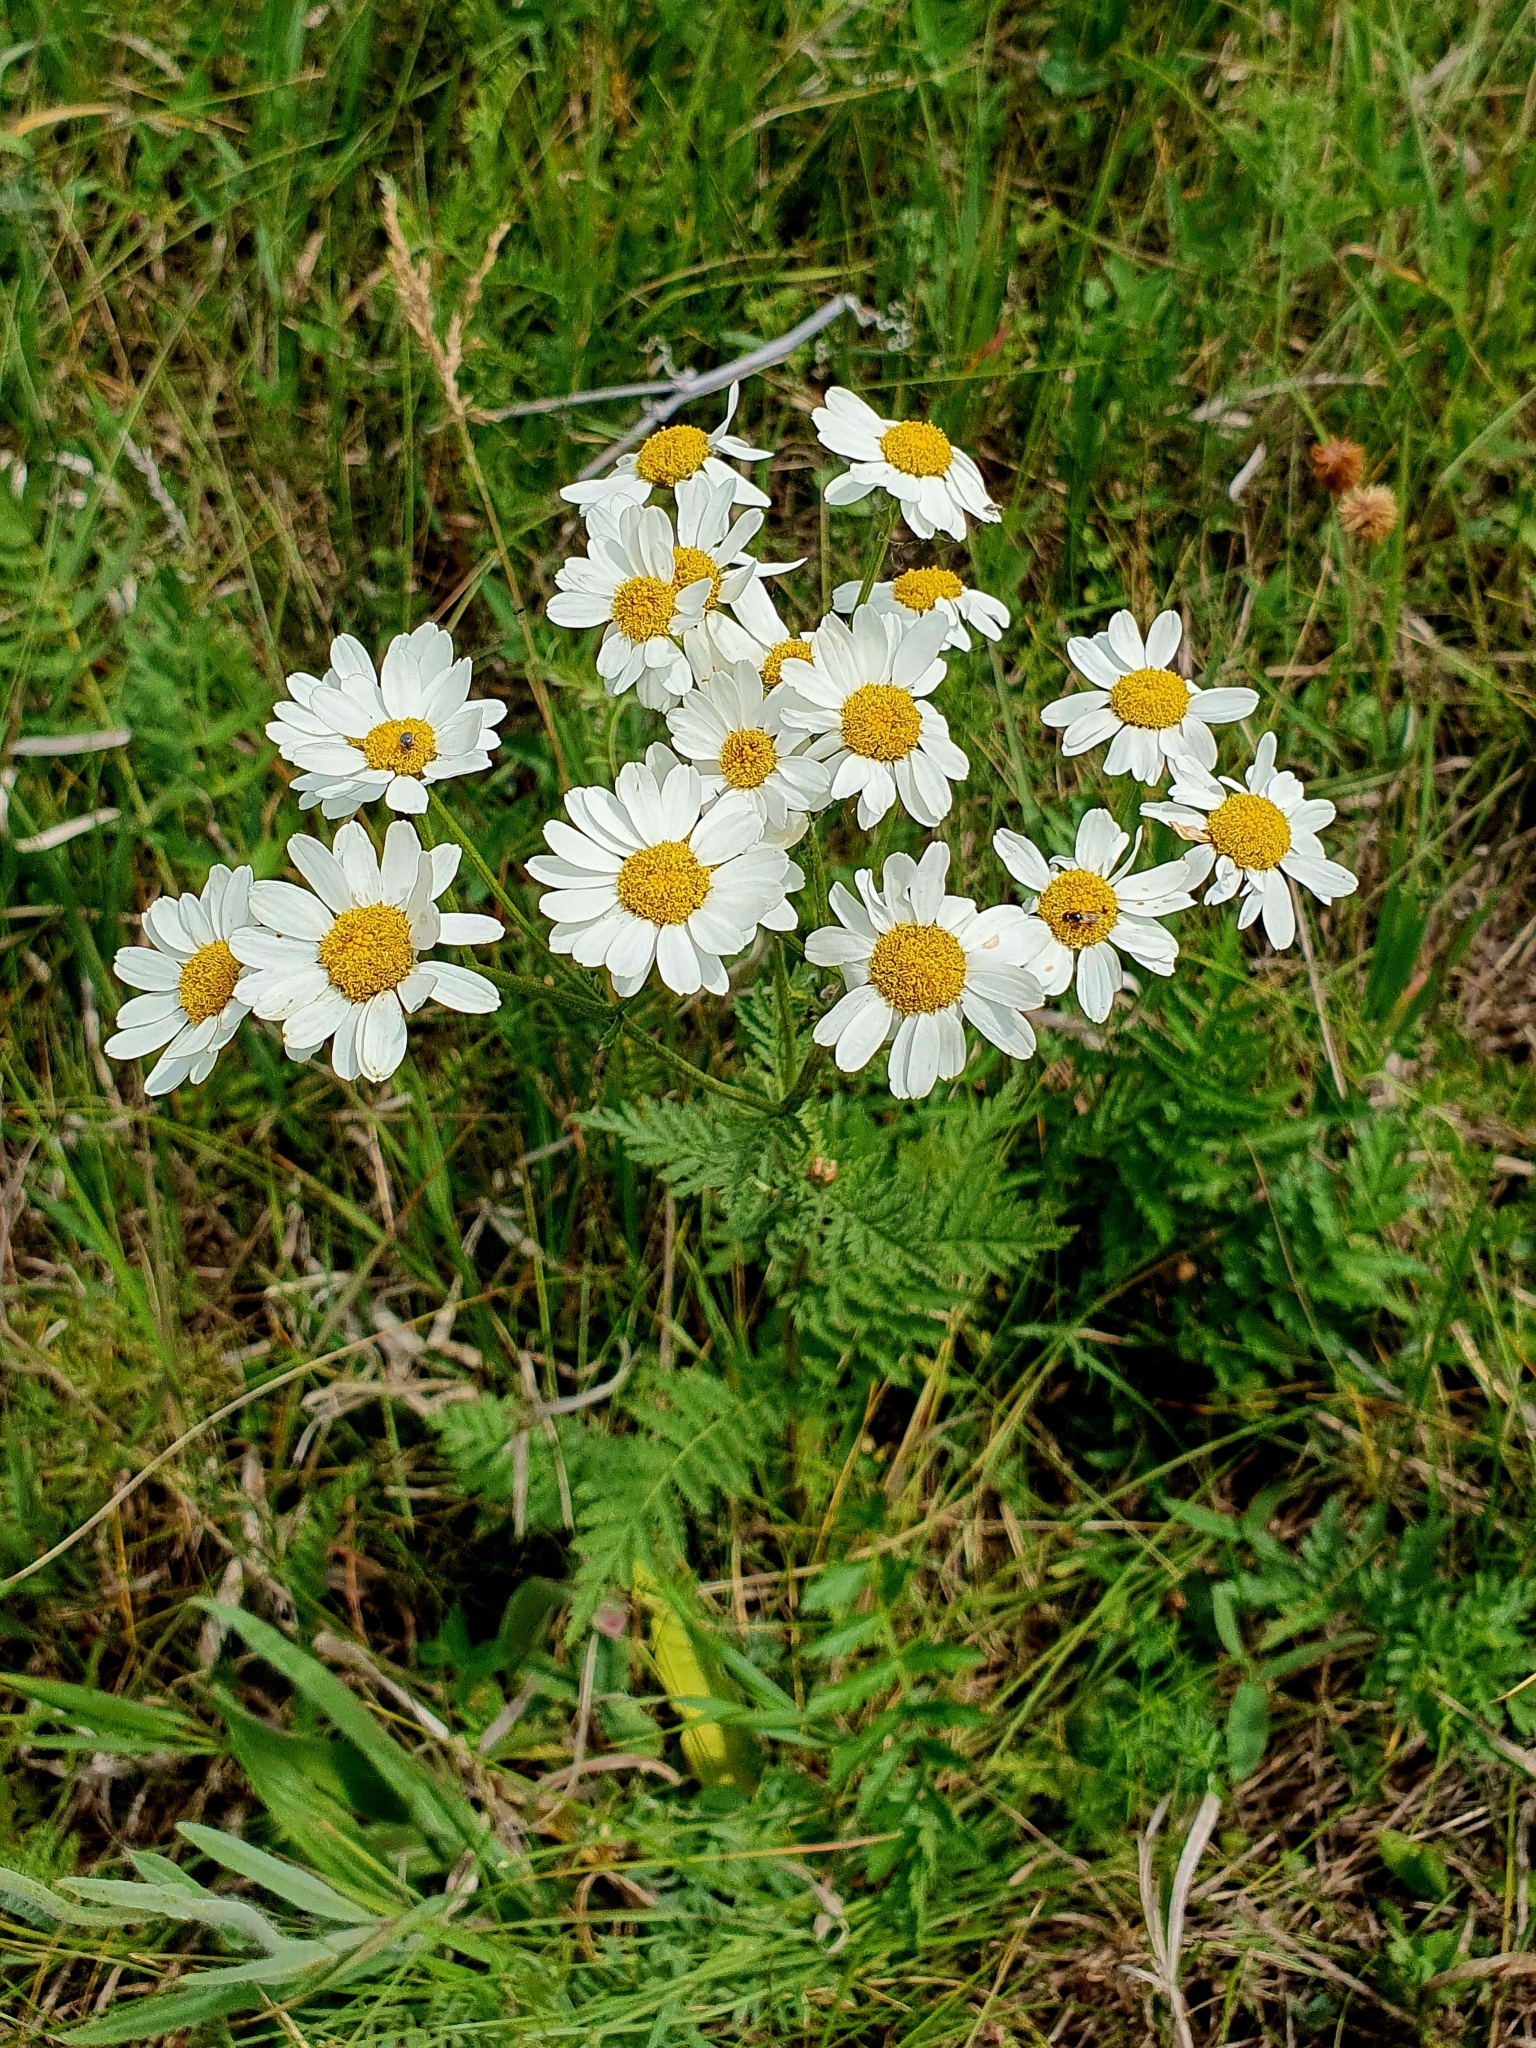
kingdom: Plantae
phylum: Tracheophyta
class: Magnoliopsida
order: Asterales
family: Asteraceae
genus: Tanacetum
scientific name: Tanacetum corymbosum
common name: Scentless feverfew
